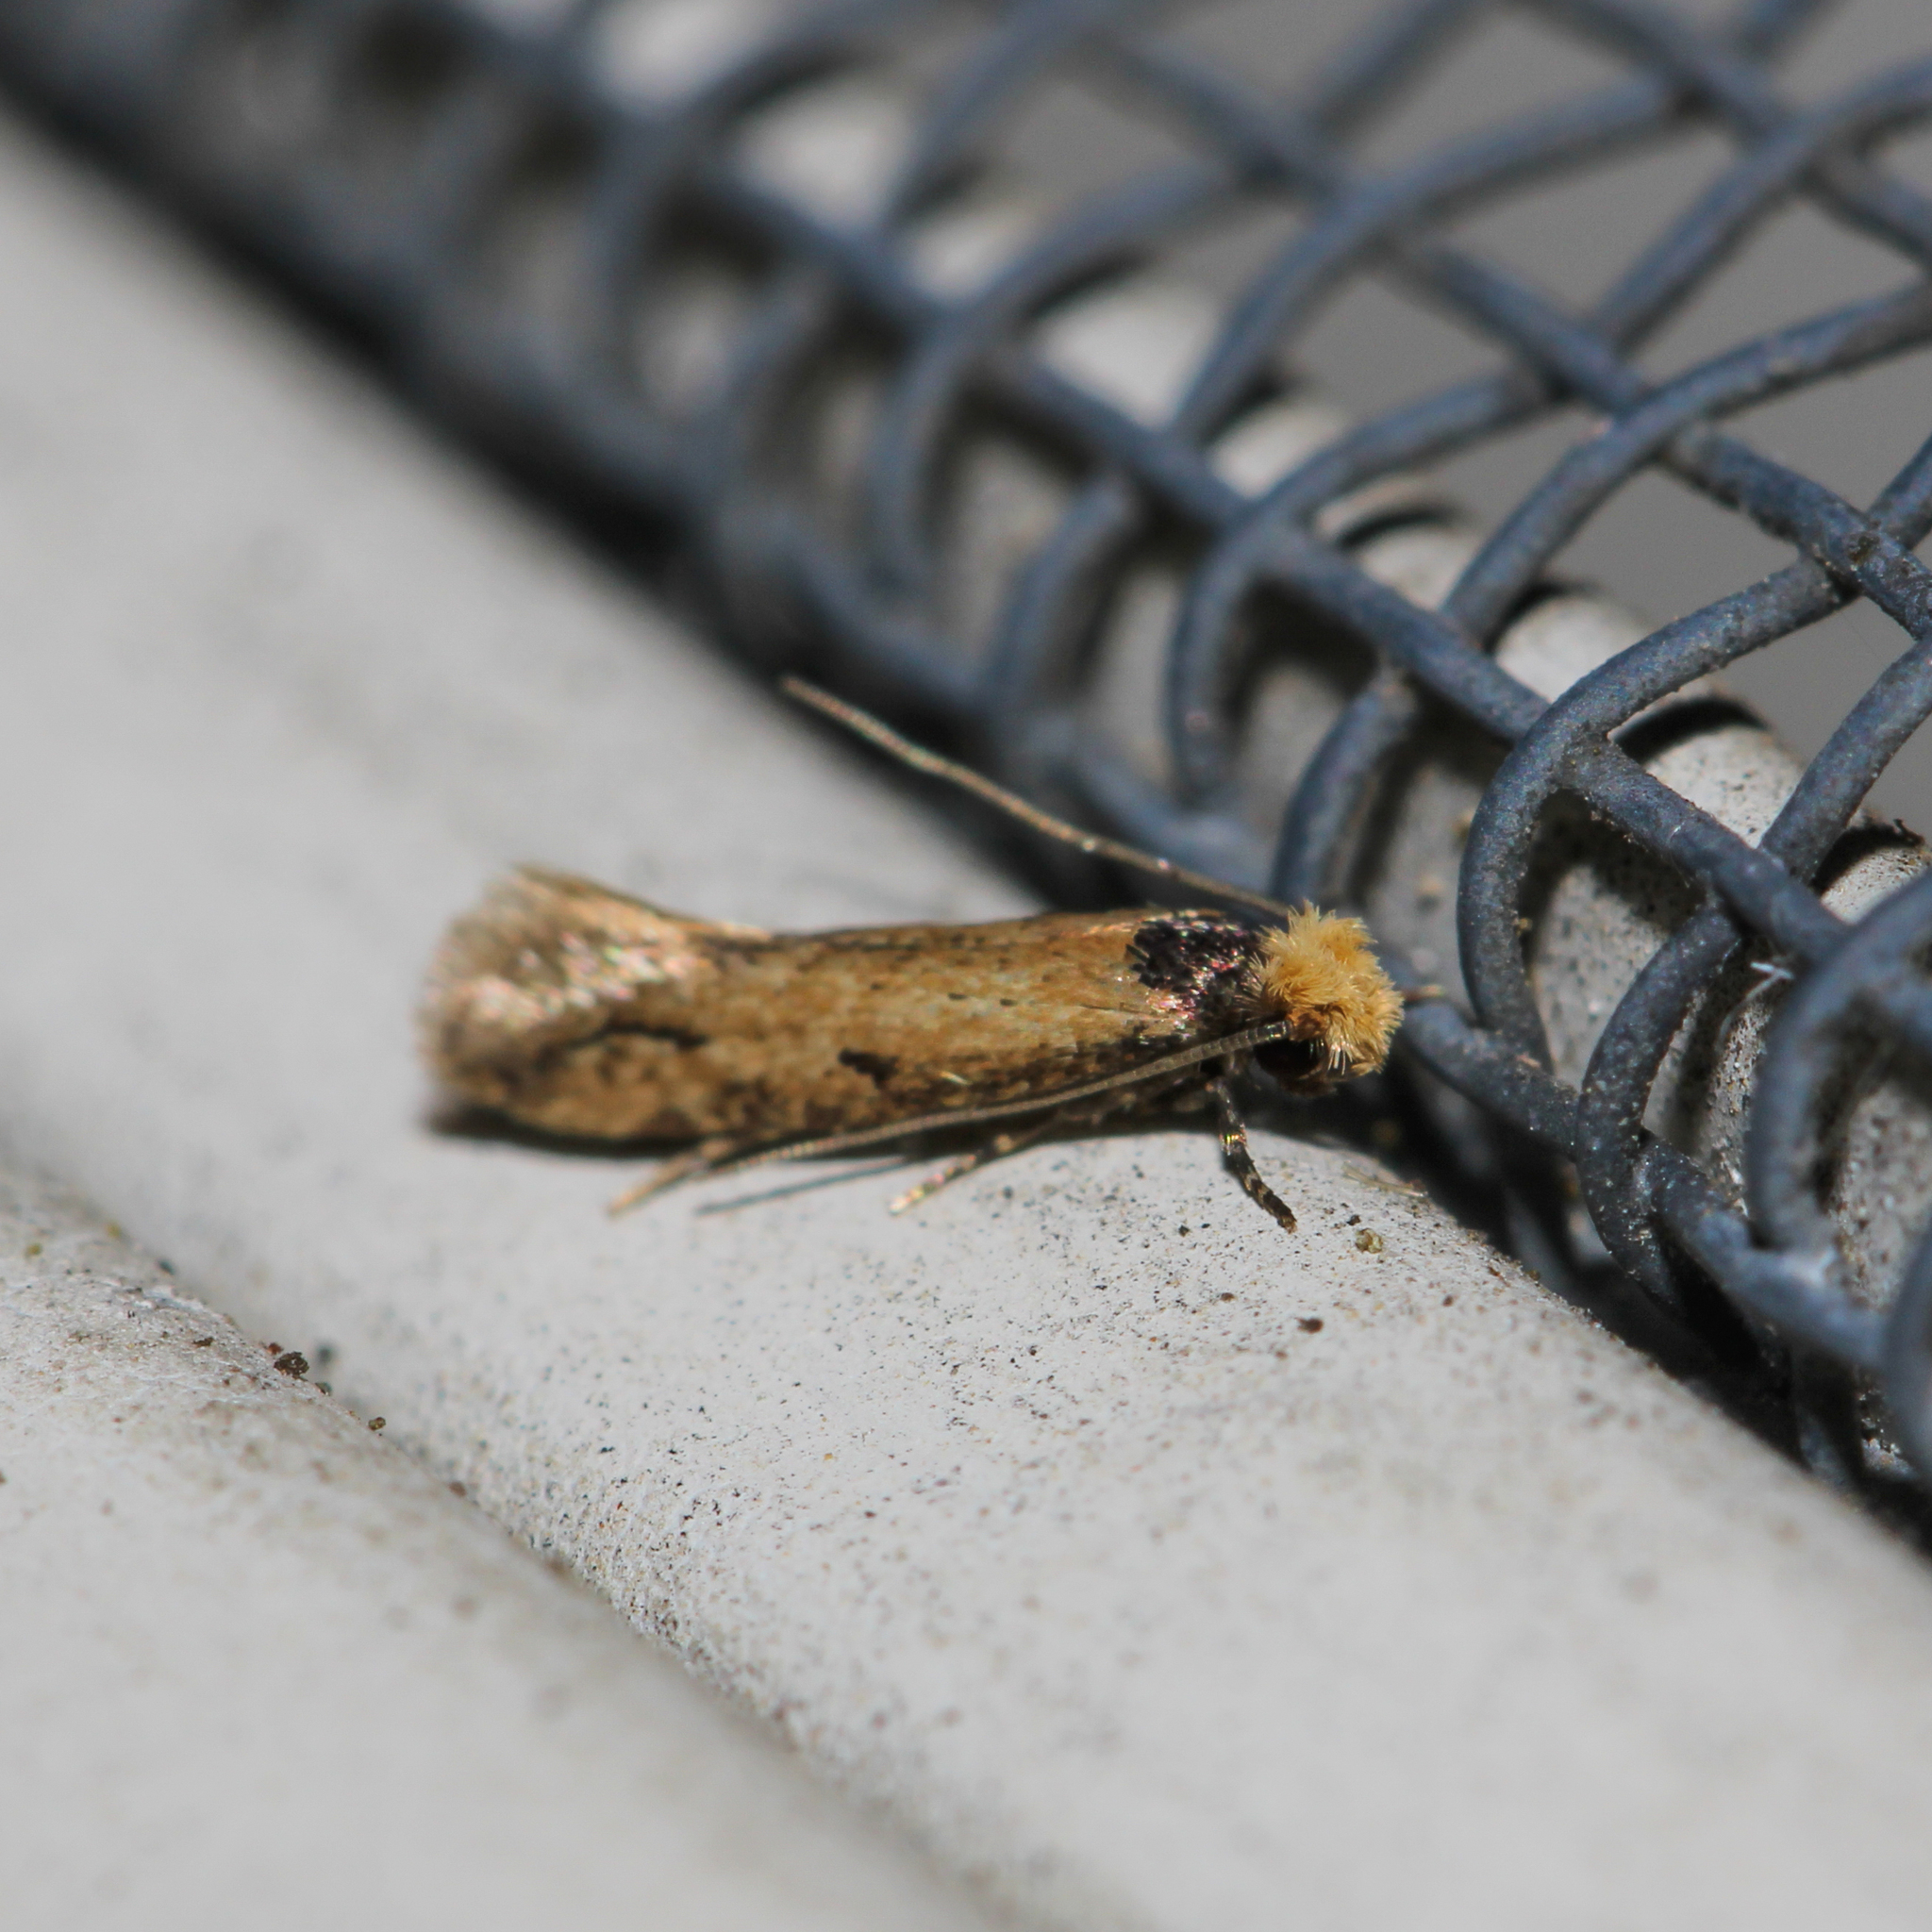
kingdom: Animalia
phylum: Arthropoda
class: Insecta
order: Lepidoptera
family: Meessiidae
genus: Homostinea
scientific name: Homostinea curviliniella
